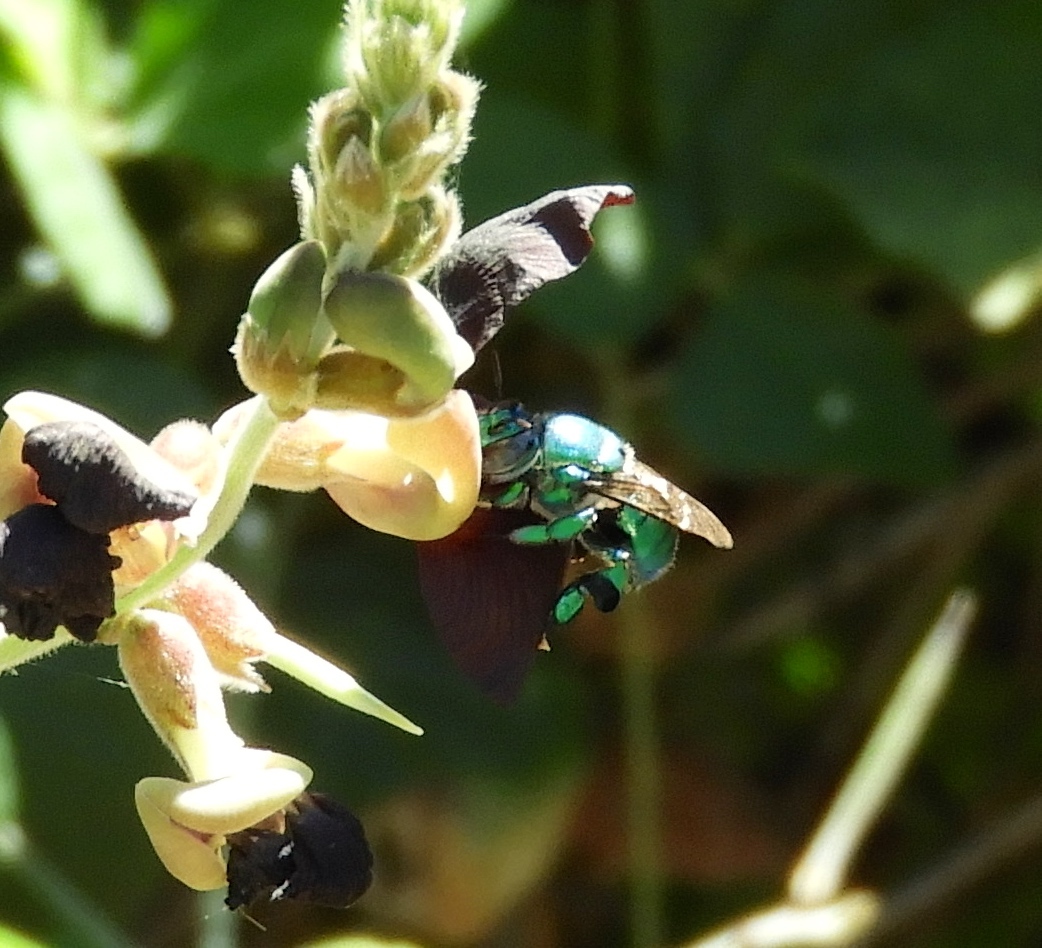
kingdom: Animalia
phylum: Arthropoda
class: Insecta
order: Hymenoptera
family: Apidae
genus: Euglossa
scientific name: Euglossa
